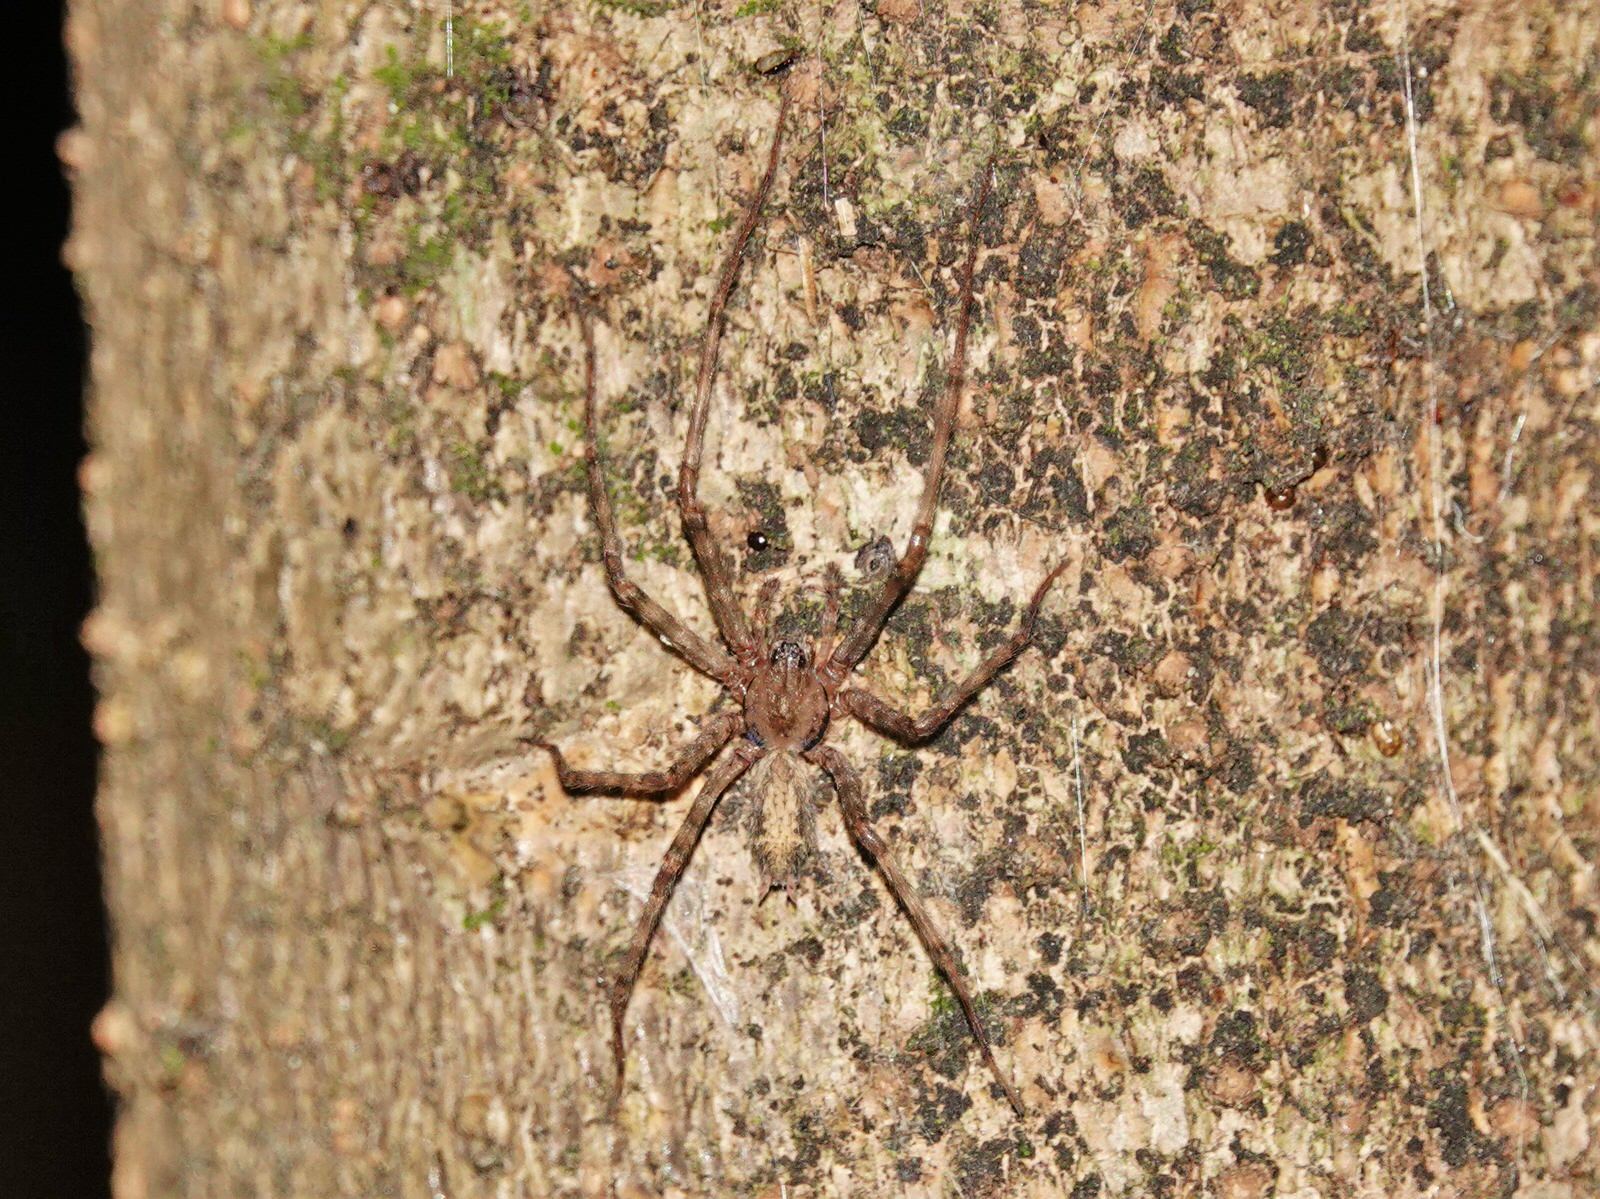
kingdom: Animalia
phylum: Arthropoda
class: Arachnida
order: Araneae
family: Stiphidiidae
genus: Stiphidion
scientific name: Stiphidion facetum
